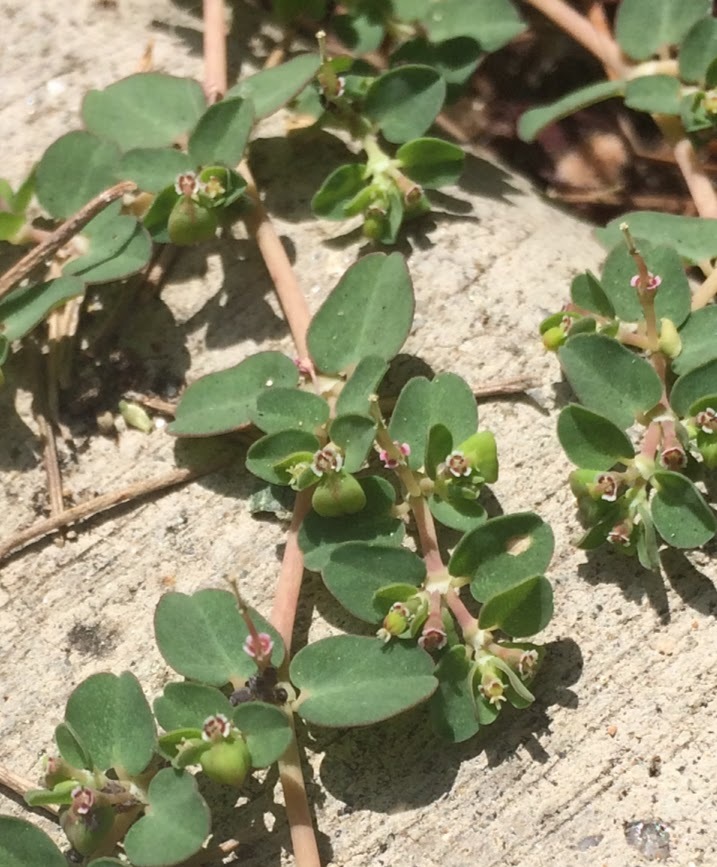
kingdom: Plantae
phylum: Tracheophyta
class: Magnoliopsida
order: Malpighiales
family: Euphorbiaceae
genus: Euphorbia
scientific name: Euphorbia serpens
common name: Matted sandmat
